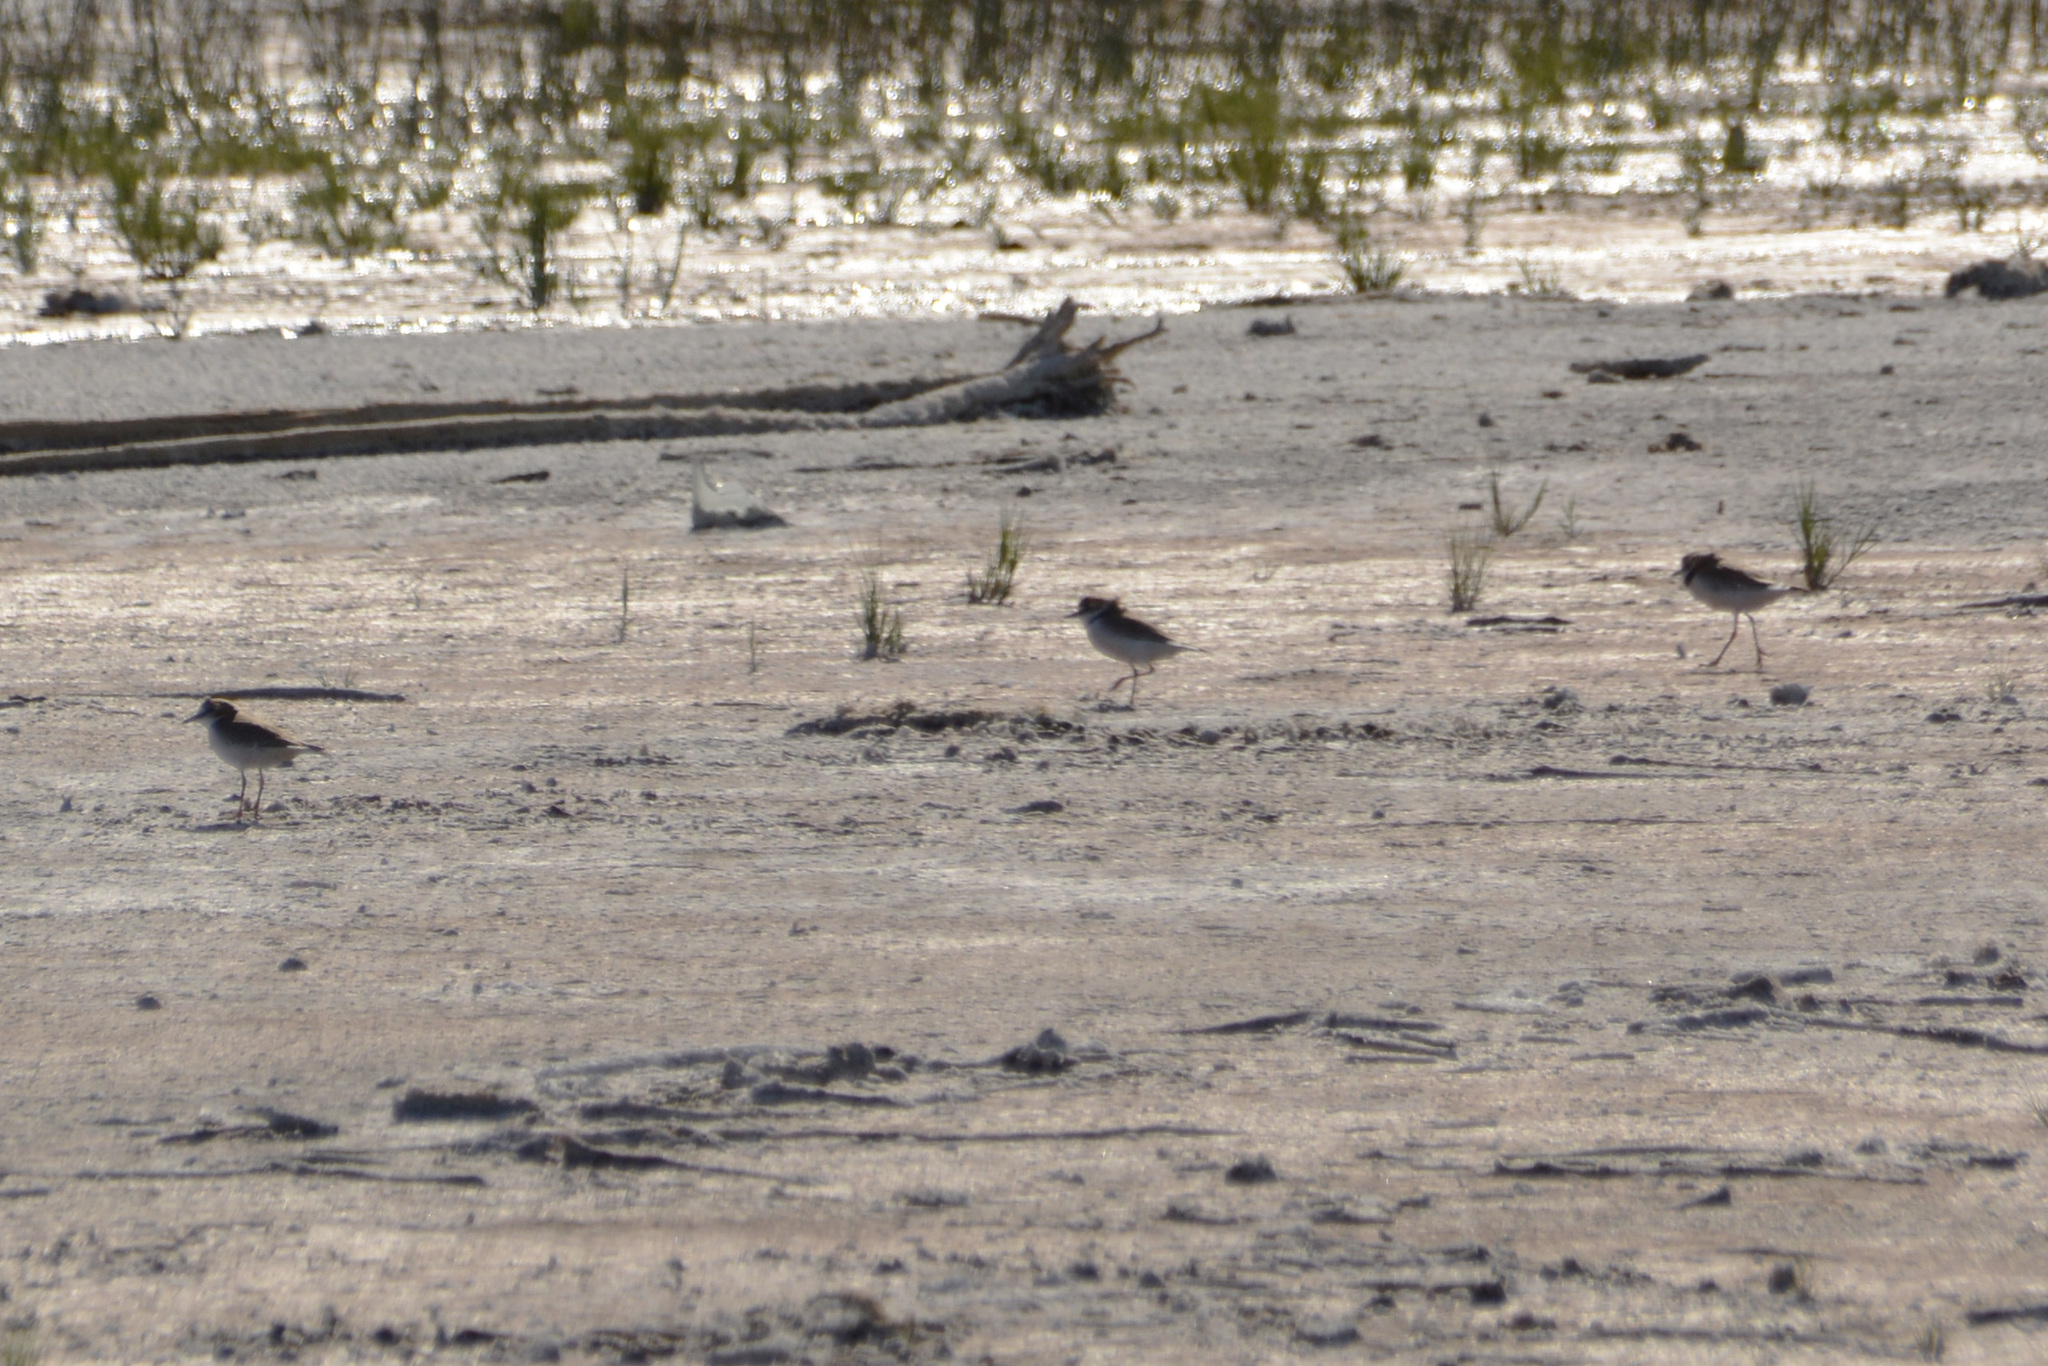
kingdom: Animalia
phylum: Chordata
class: Aves
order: Charadriiformes
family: Charadriidae
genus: Anarhynchus
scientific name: Anarhynchus
